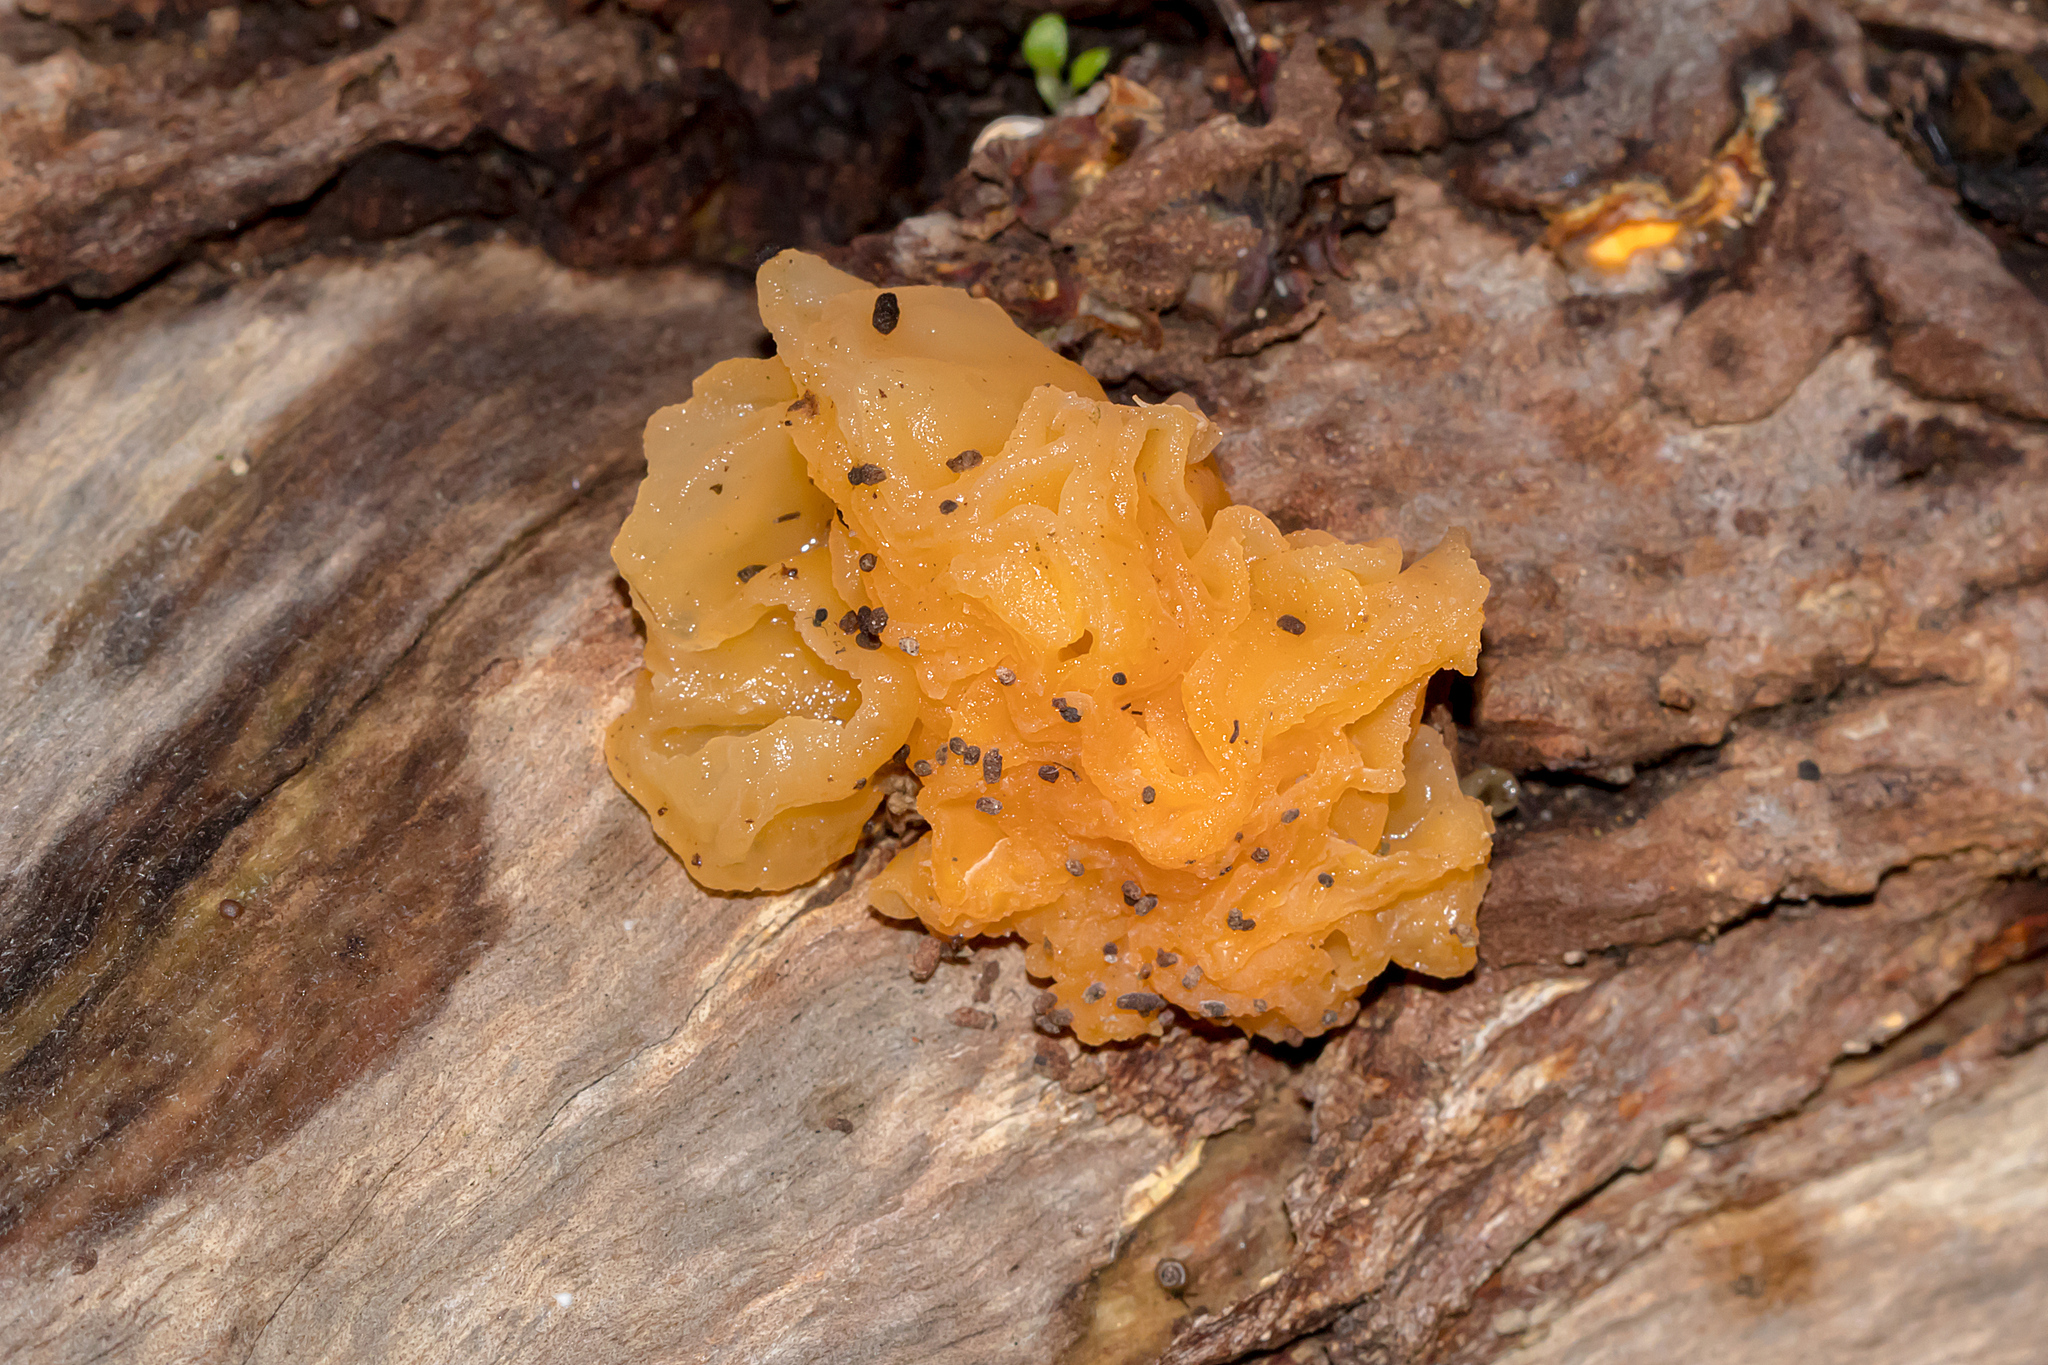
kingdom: Fungi
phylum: Basidiomycota
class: Tremellomycetes
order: Tremellales
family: Tremellaceae
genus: Tremella
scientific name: Tremella mesenterica
